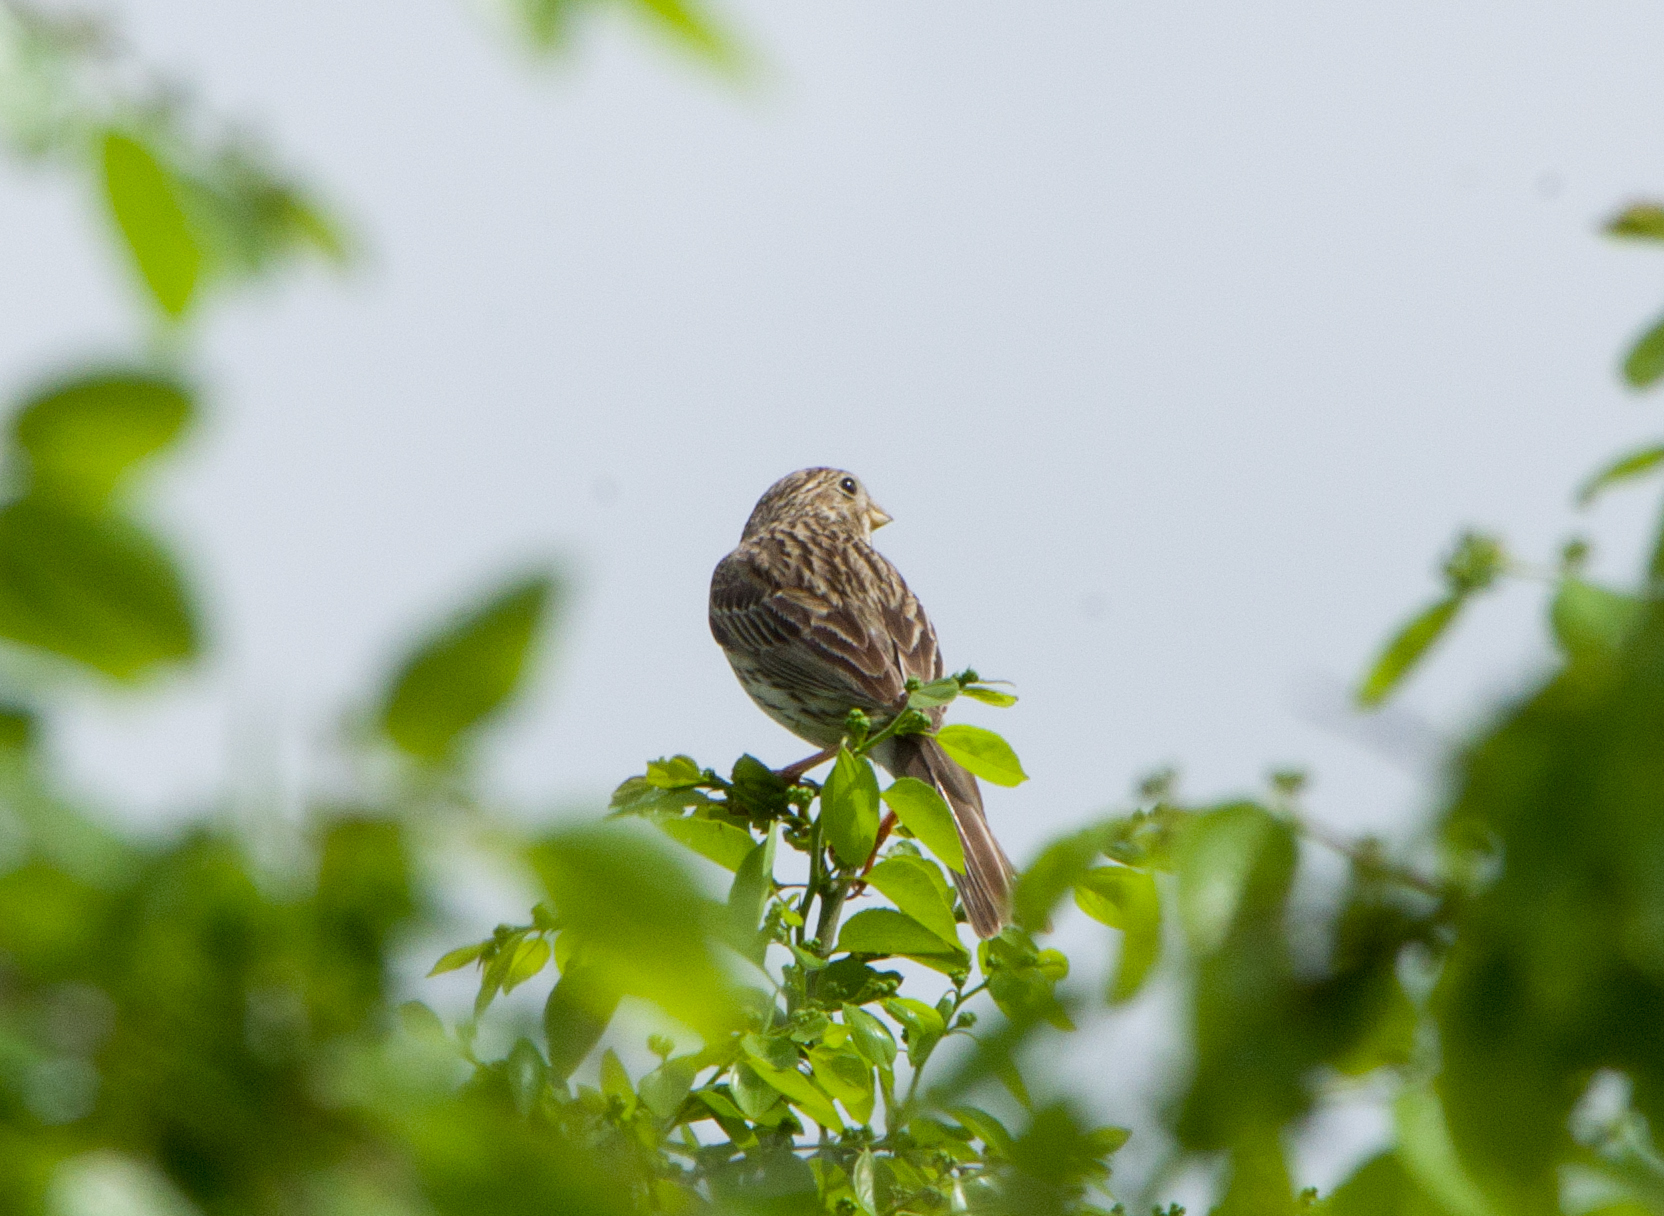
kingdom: Animalia
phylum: Chordata
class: Aves
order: Passeriformes
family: Emberizidae
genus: Emberiza
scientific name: Emberiza calandra
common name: Corn bunting
